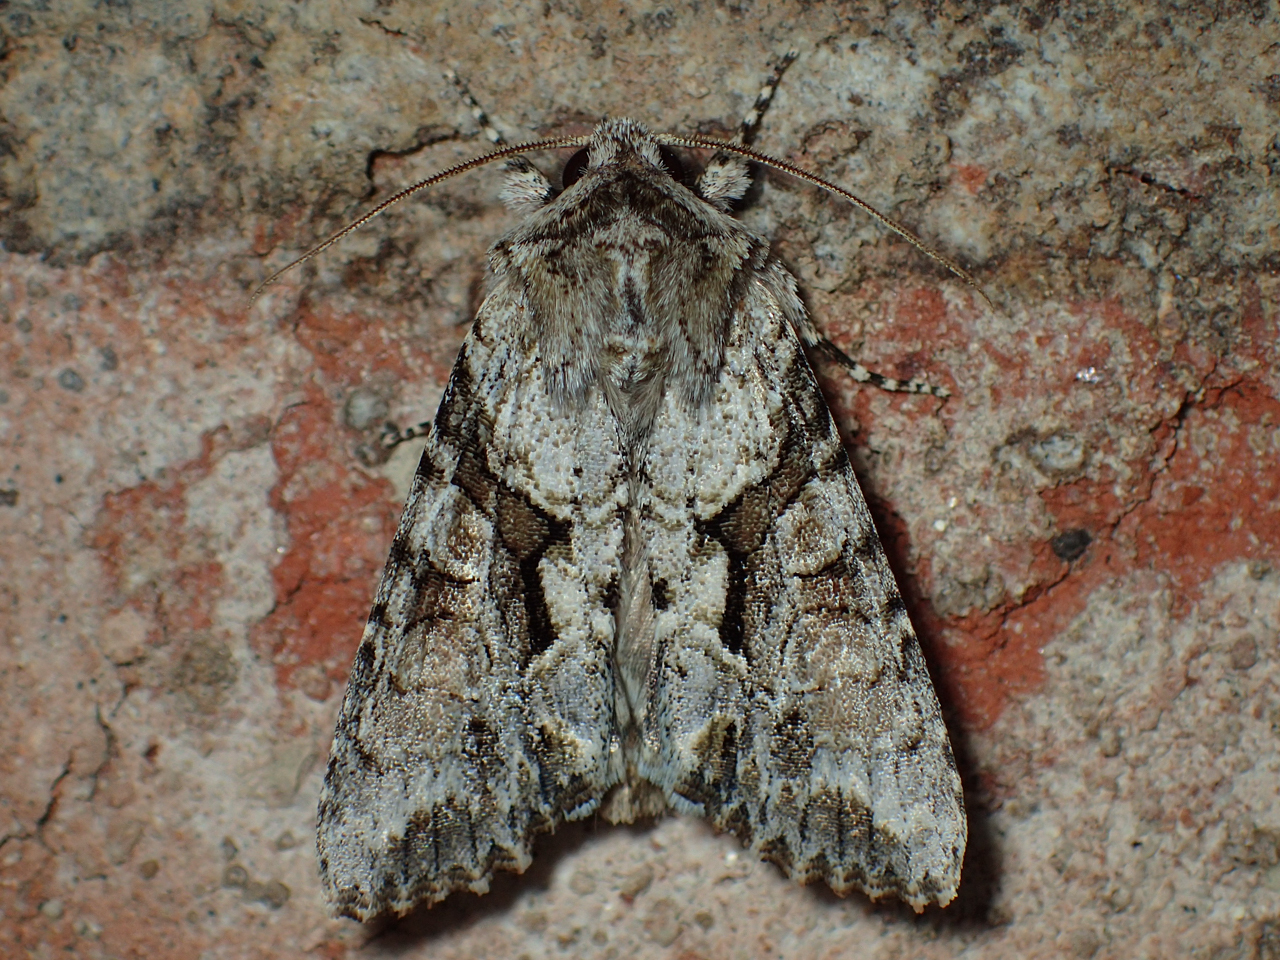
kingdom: Animalia
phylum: Arthropoda
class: Insecta
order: Lepidoptera
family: Noctuidae
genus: Achatia
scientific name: Achatia distincta
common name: Distinct quaker
